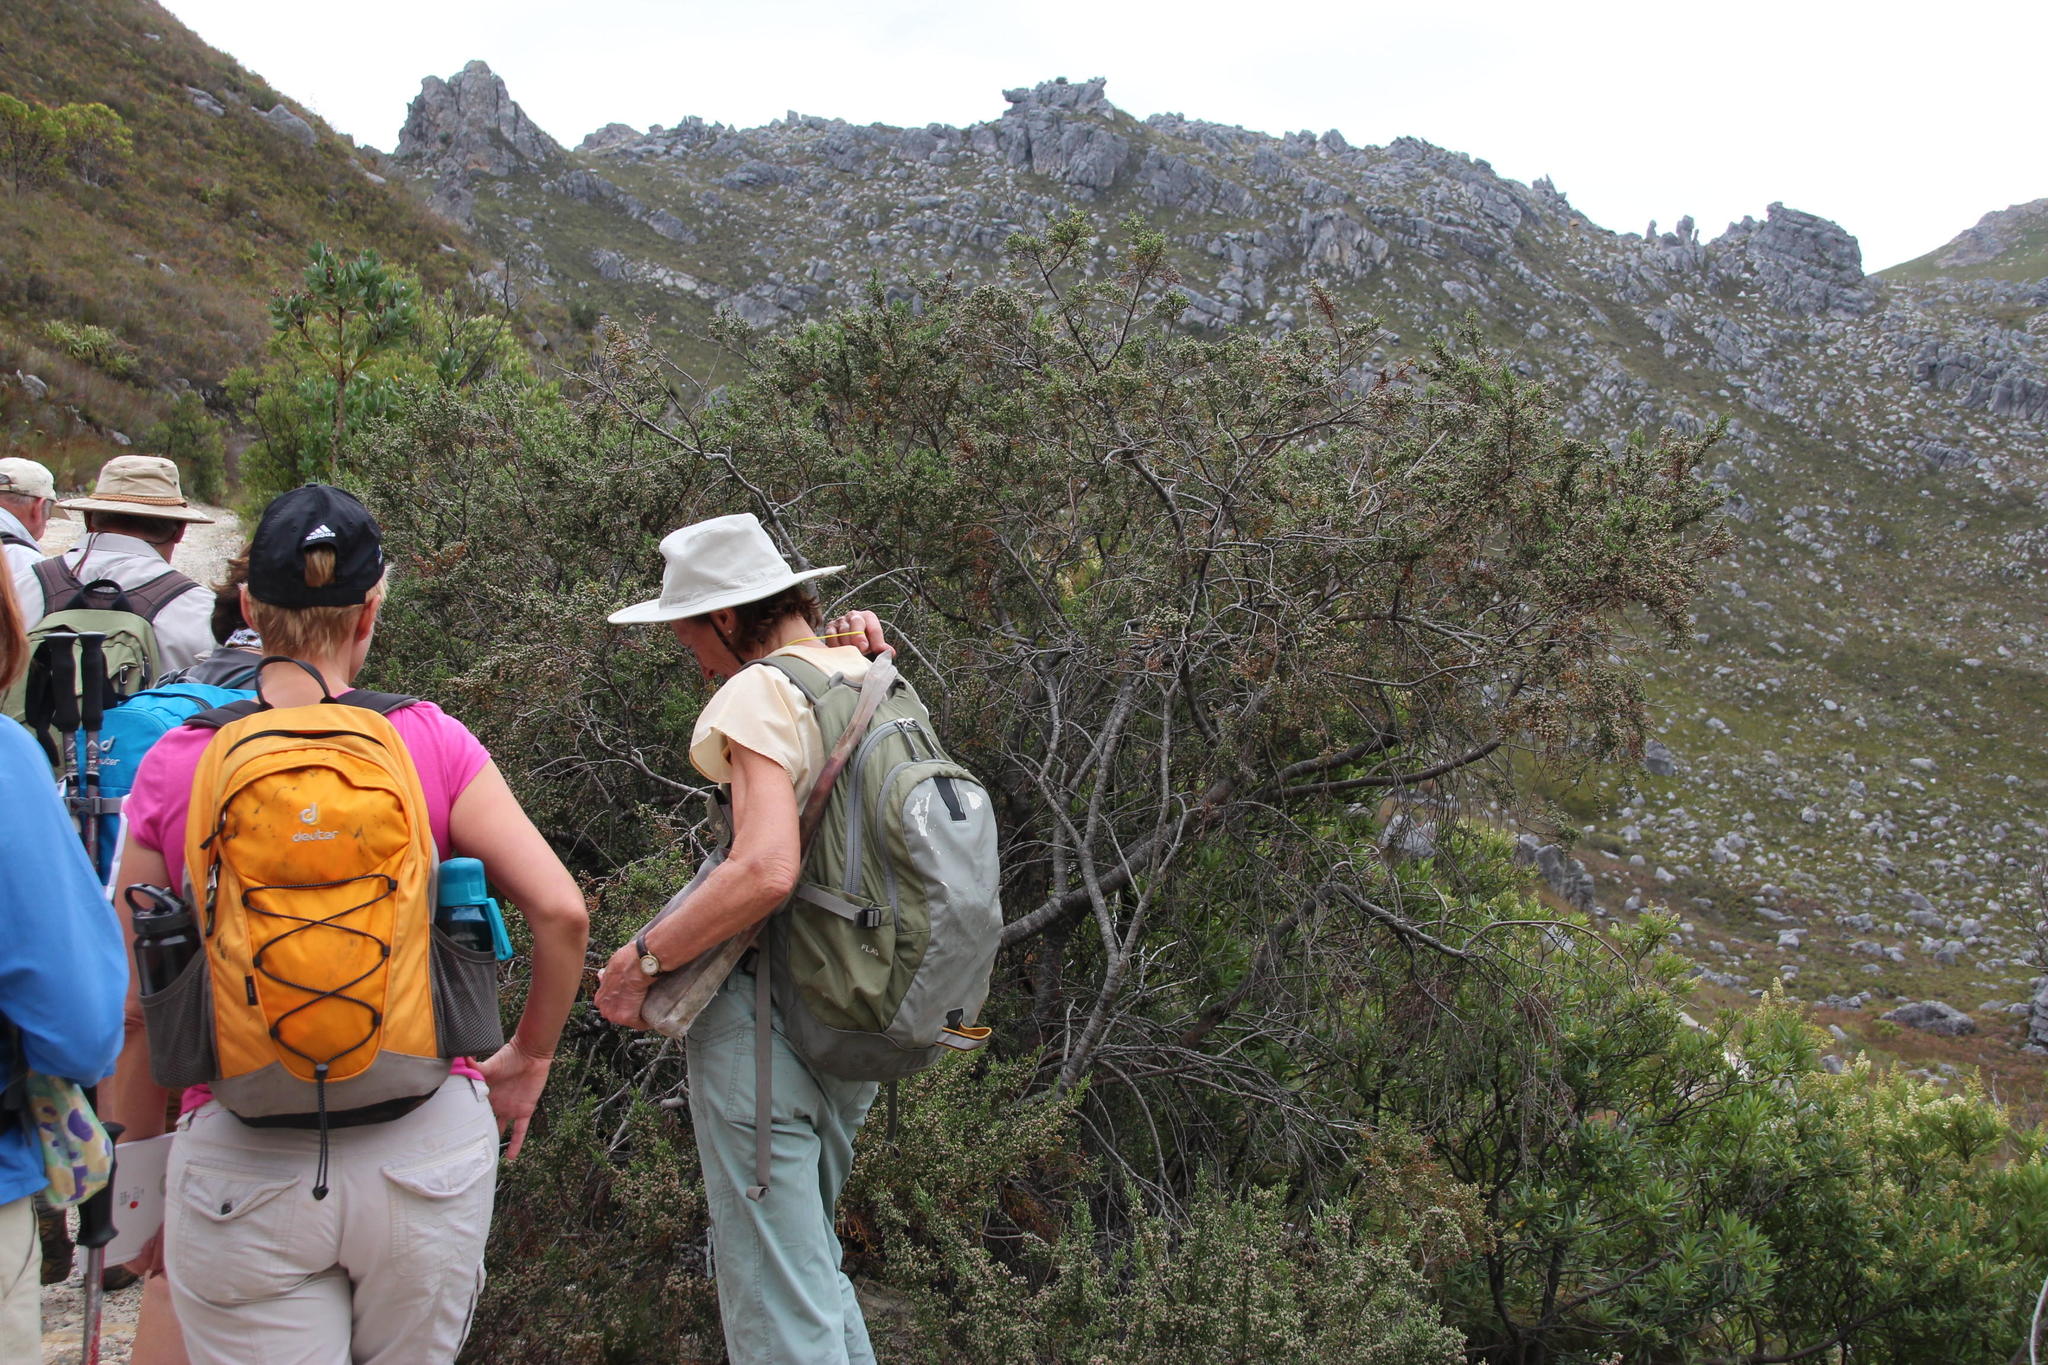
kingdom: Plantae
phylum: Tracheophyta
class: Magnoliopsida
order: Bruniales
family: Bruniaceae
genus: Brunia
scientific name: Brunia microphylla
